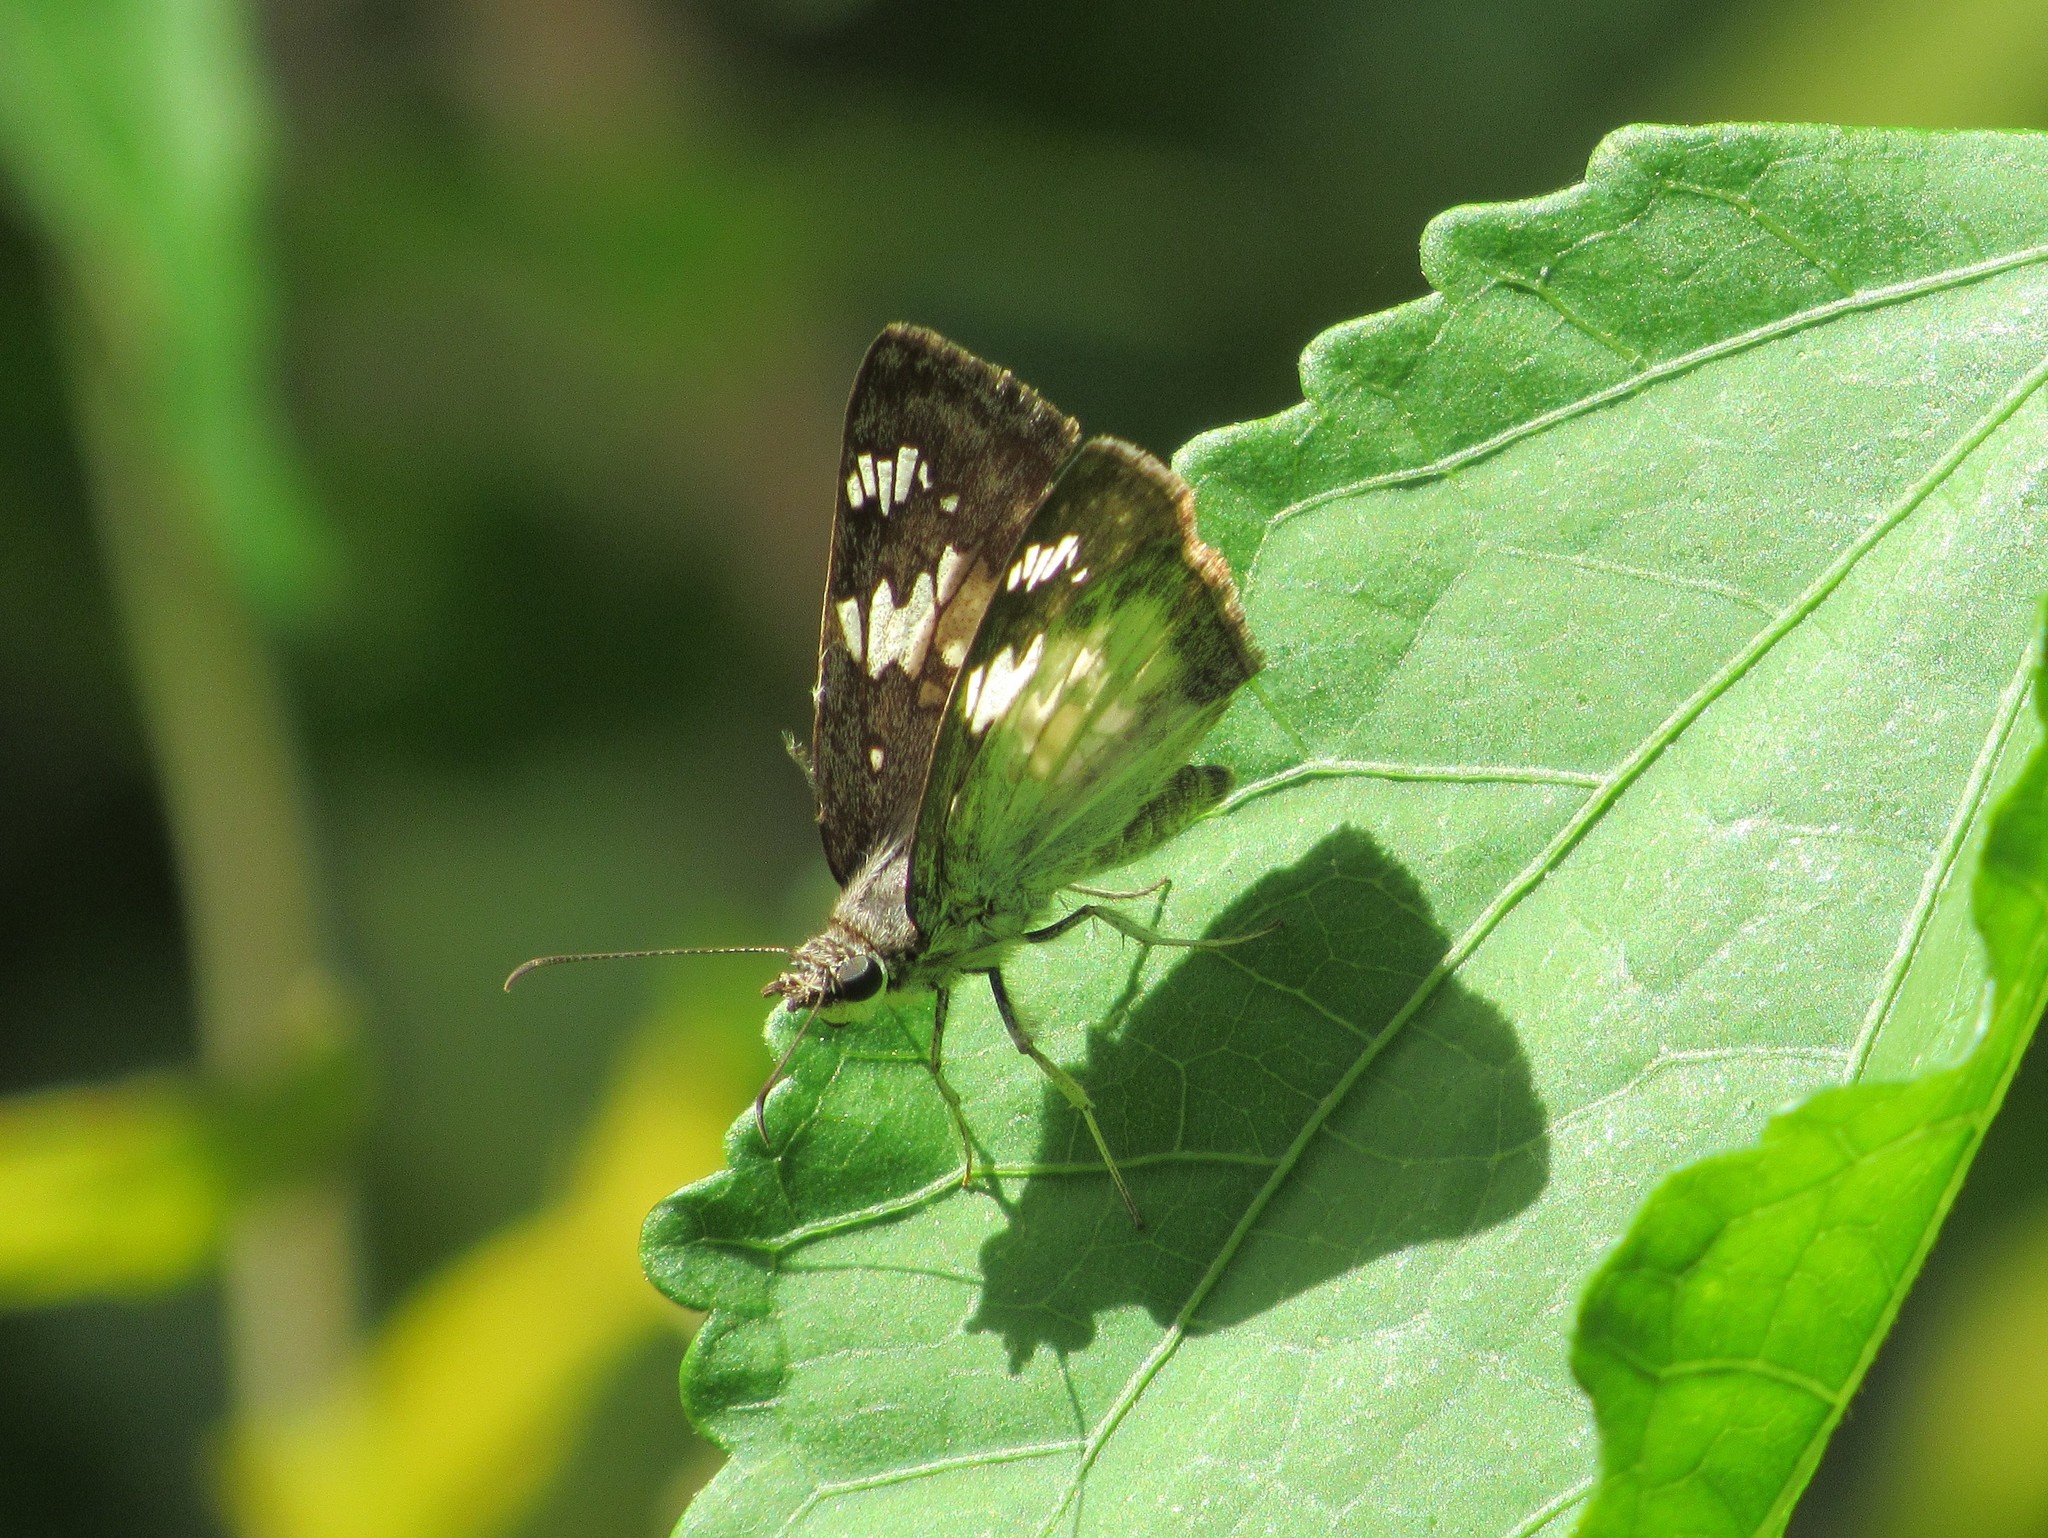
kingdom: Animalia
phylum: Arthropoda
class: Insecta
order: Lepidoptera
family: Hesperiidae
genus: Xenophanes
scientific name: Xenophanes tryxus
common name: Glassy-winged skipper
